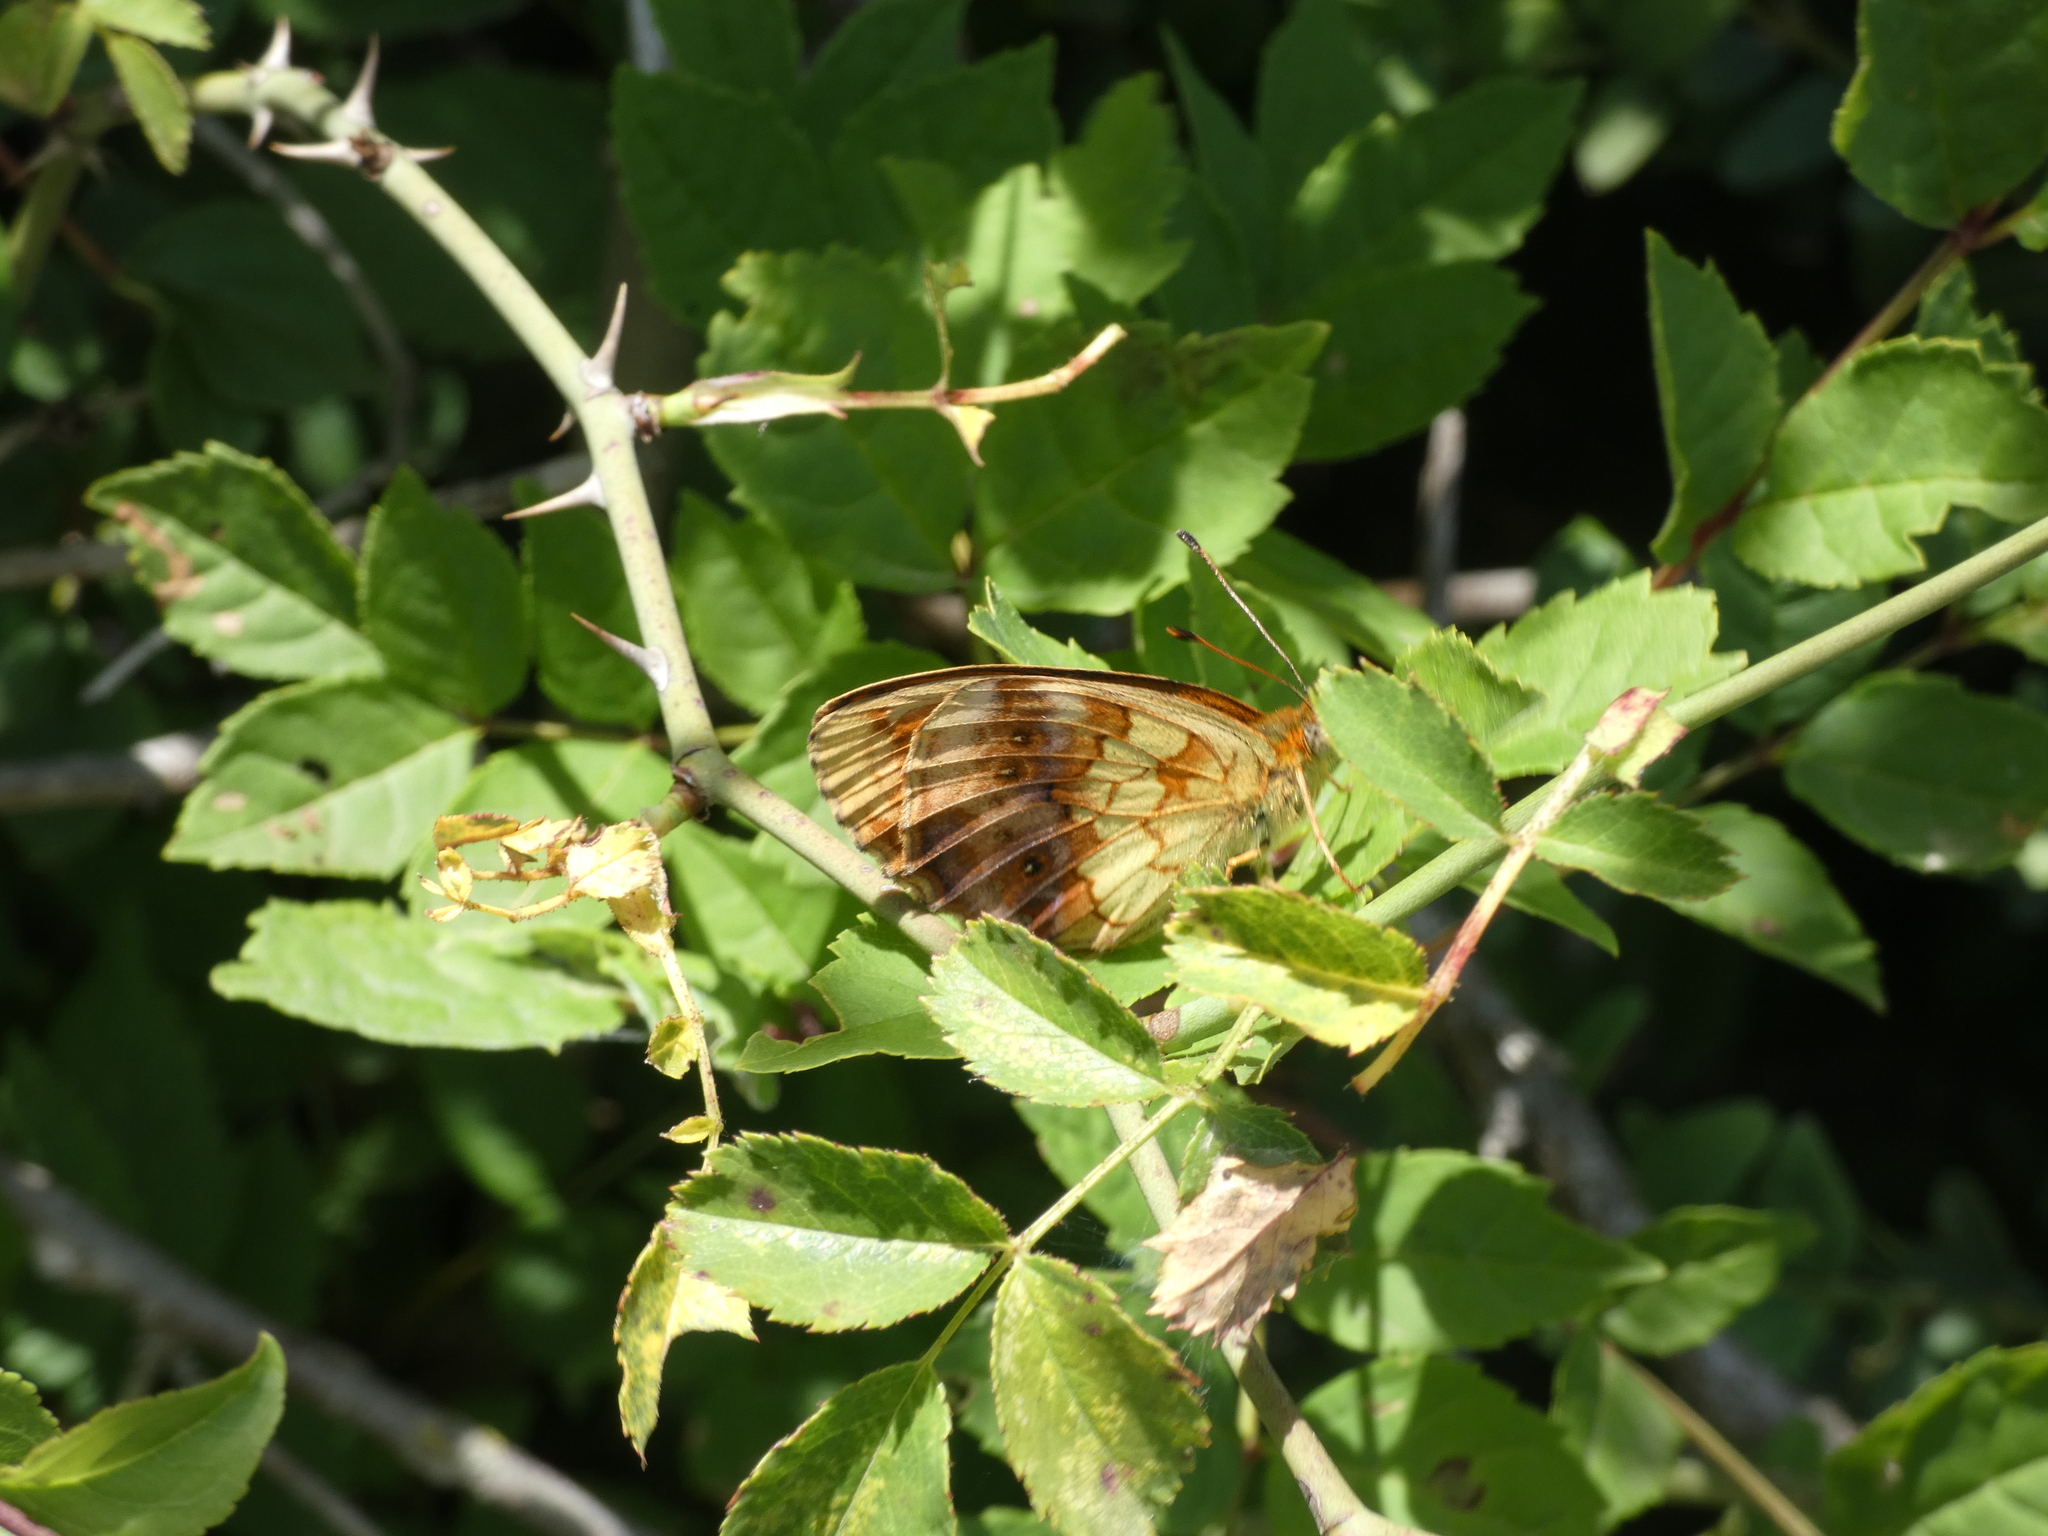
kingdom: Animalia
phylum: Arthropoda
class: Insecta
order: Lepidoptera
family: Nymphalidae
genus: Brenthis
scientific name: Brenthis daphne
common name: Marbled fritillary
